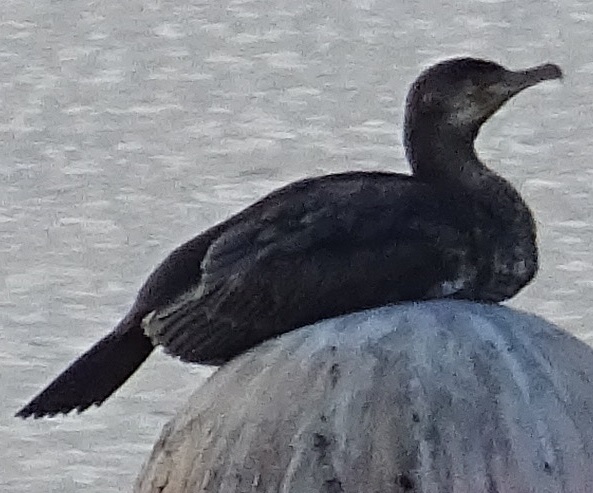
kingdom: Animalia
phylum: Chordata
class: Aves
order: Suliformes
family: Phalacrocoracidae
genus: Phalacrocorax
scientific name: Phalacrocorax carbo
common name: Great cormorant
